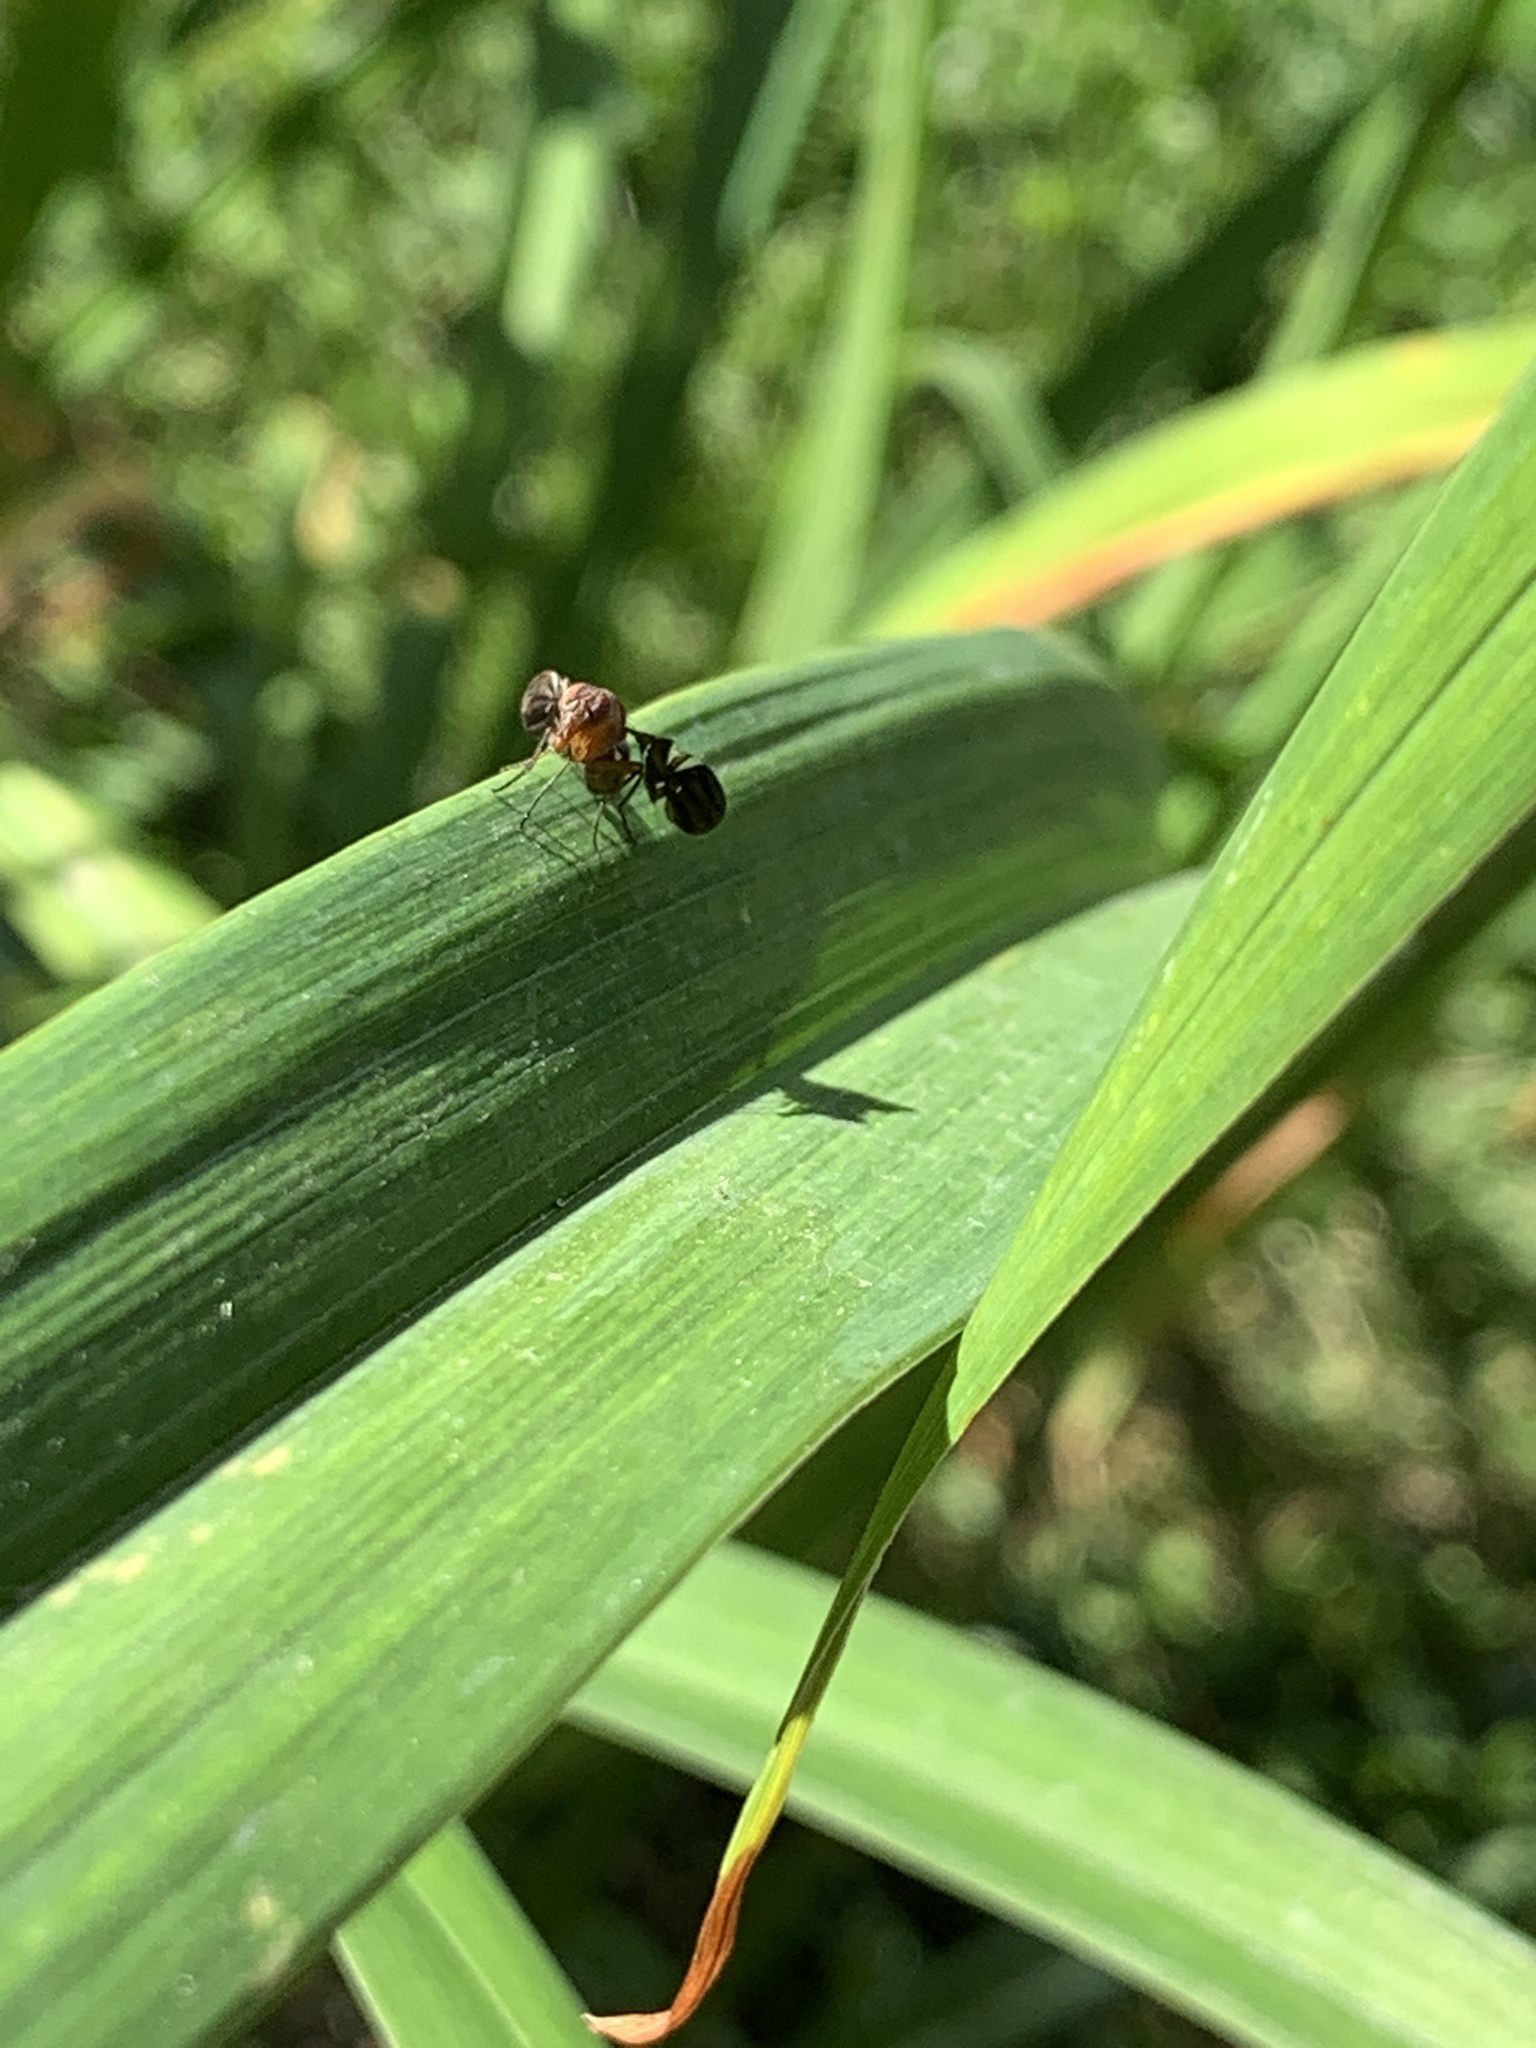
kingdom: Animalia
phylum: Arthropoda
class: Insecta
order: Diptera
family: Ulidiidae
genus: Delphinia
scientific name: Delphinia picta
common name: Common picture-winged fly
